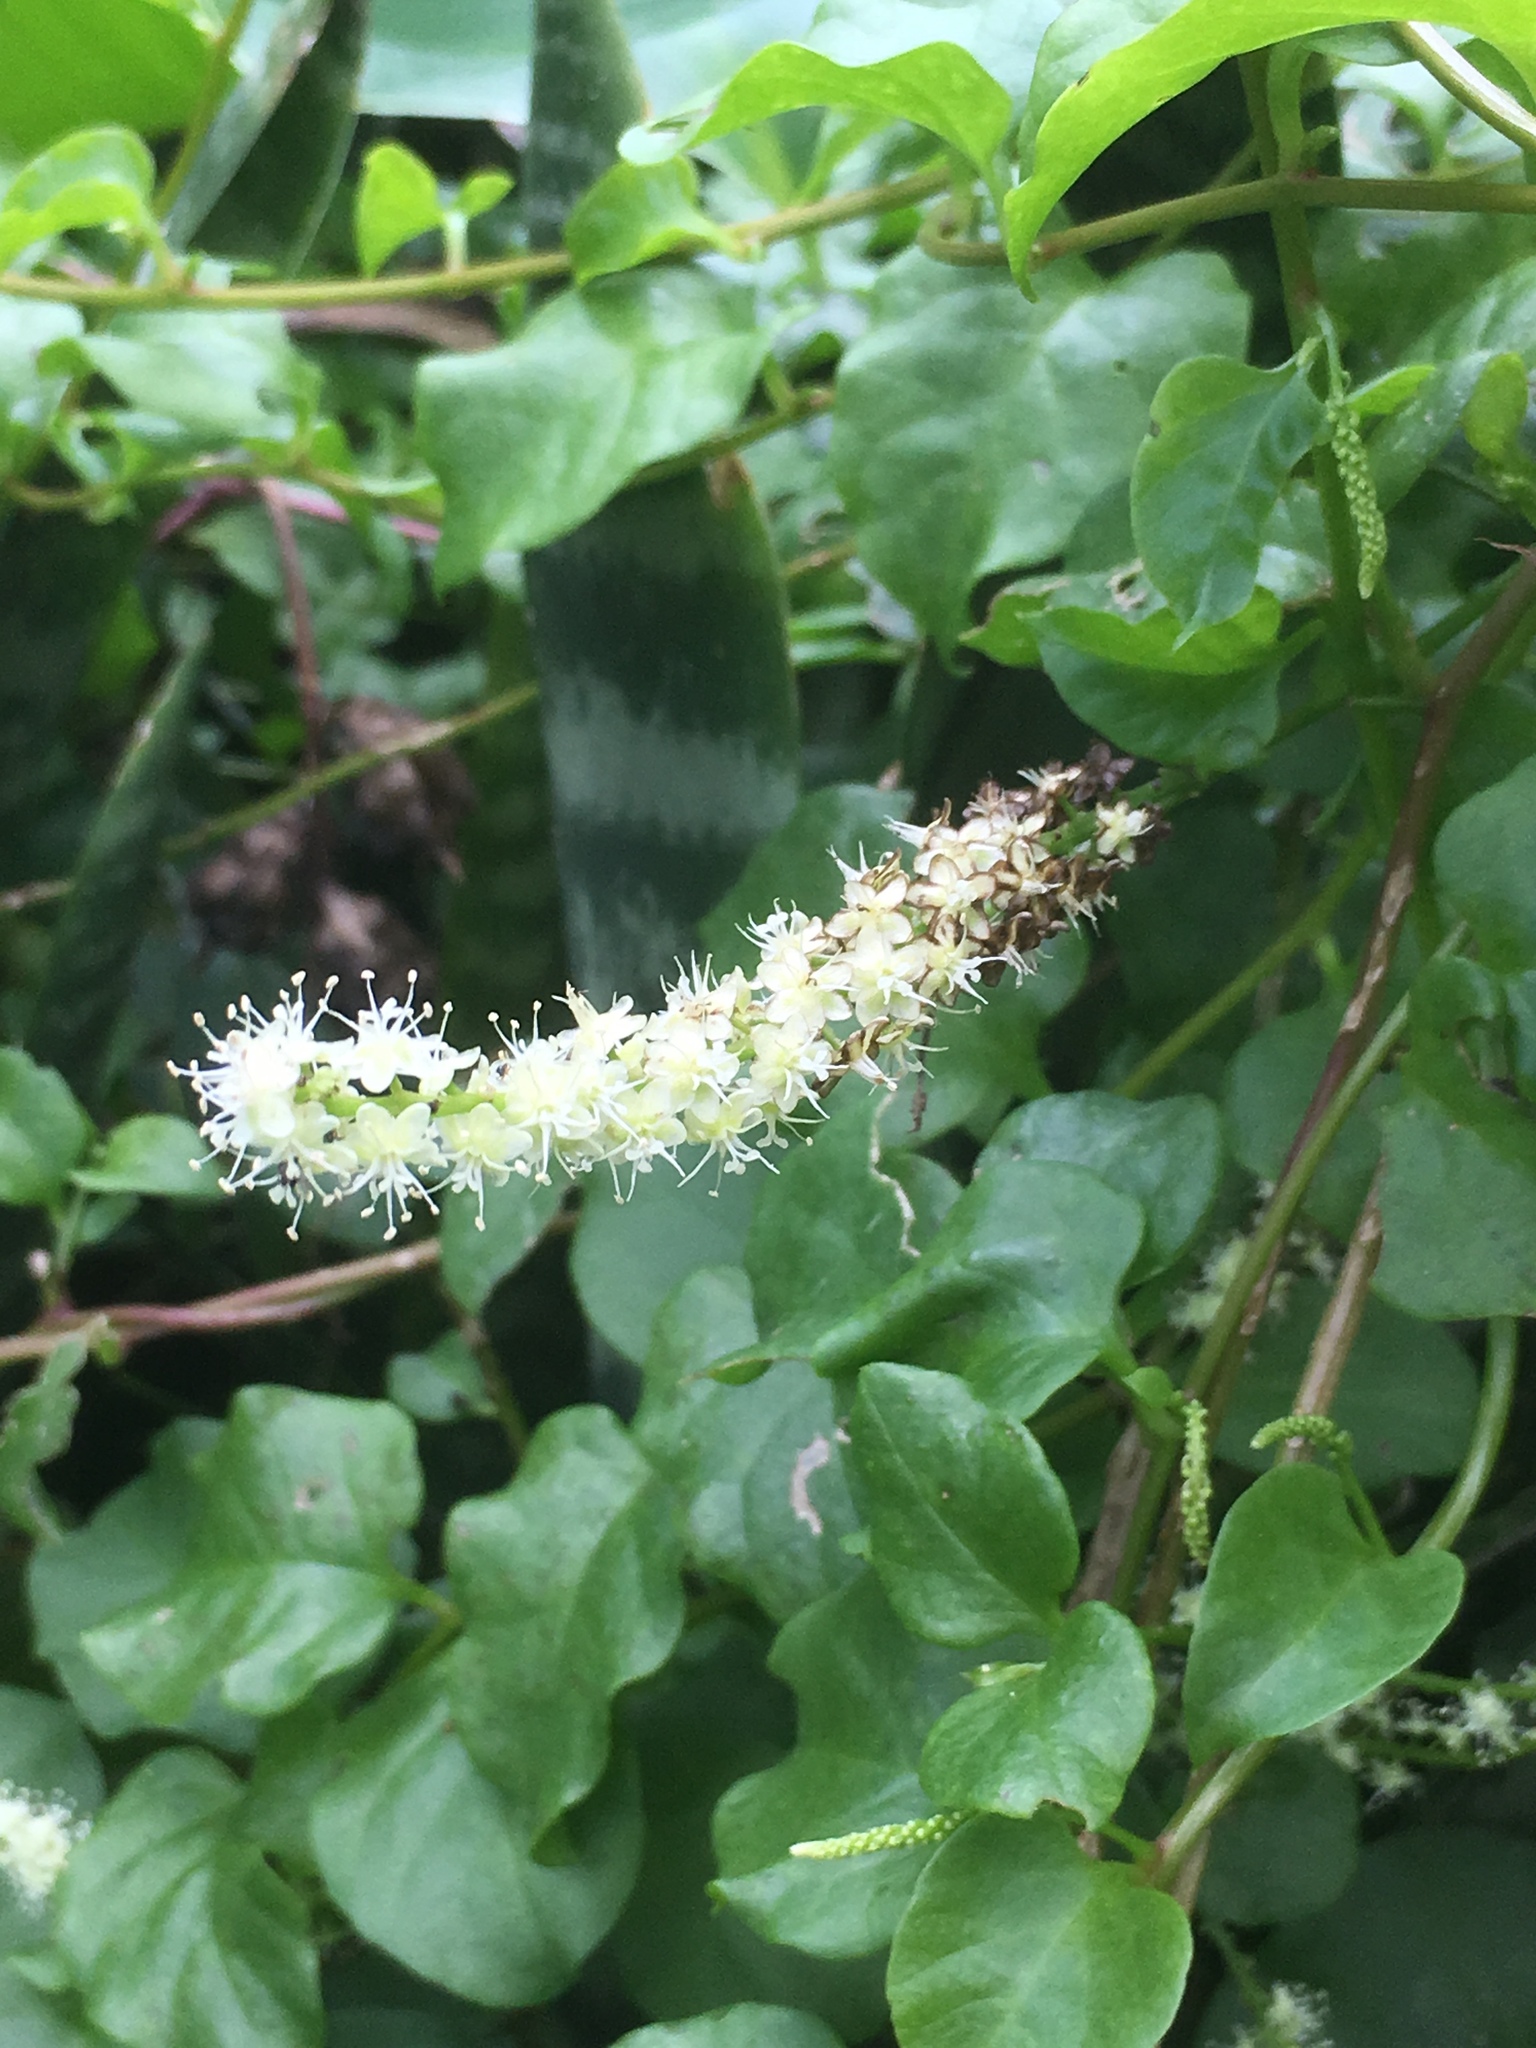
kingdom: Plantae
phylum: Tracheophyta
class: Magnoliopsida
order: Caryophyllales
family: Basellaceae
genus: Anredera
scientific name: Anredera cordifolia
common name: Heartleaf madeiravine
